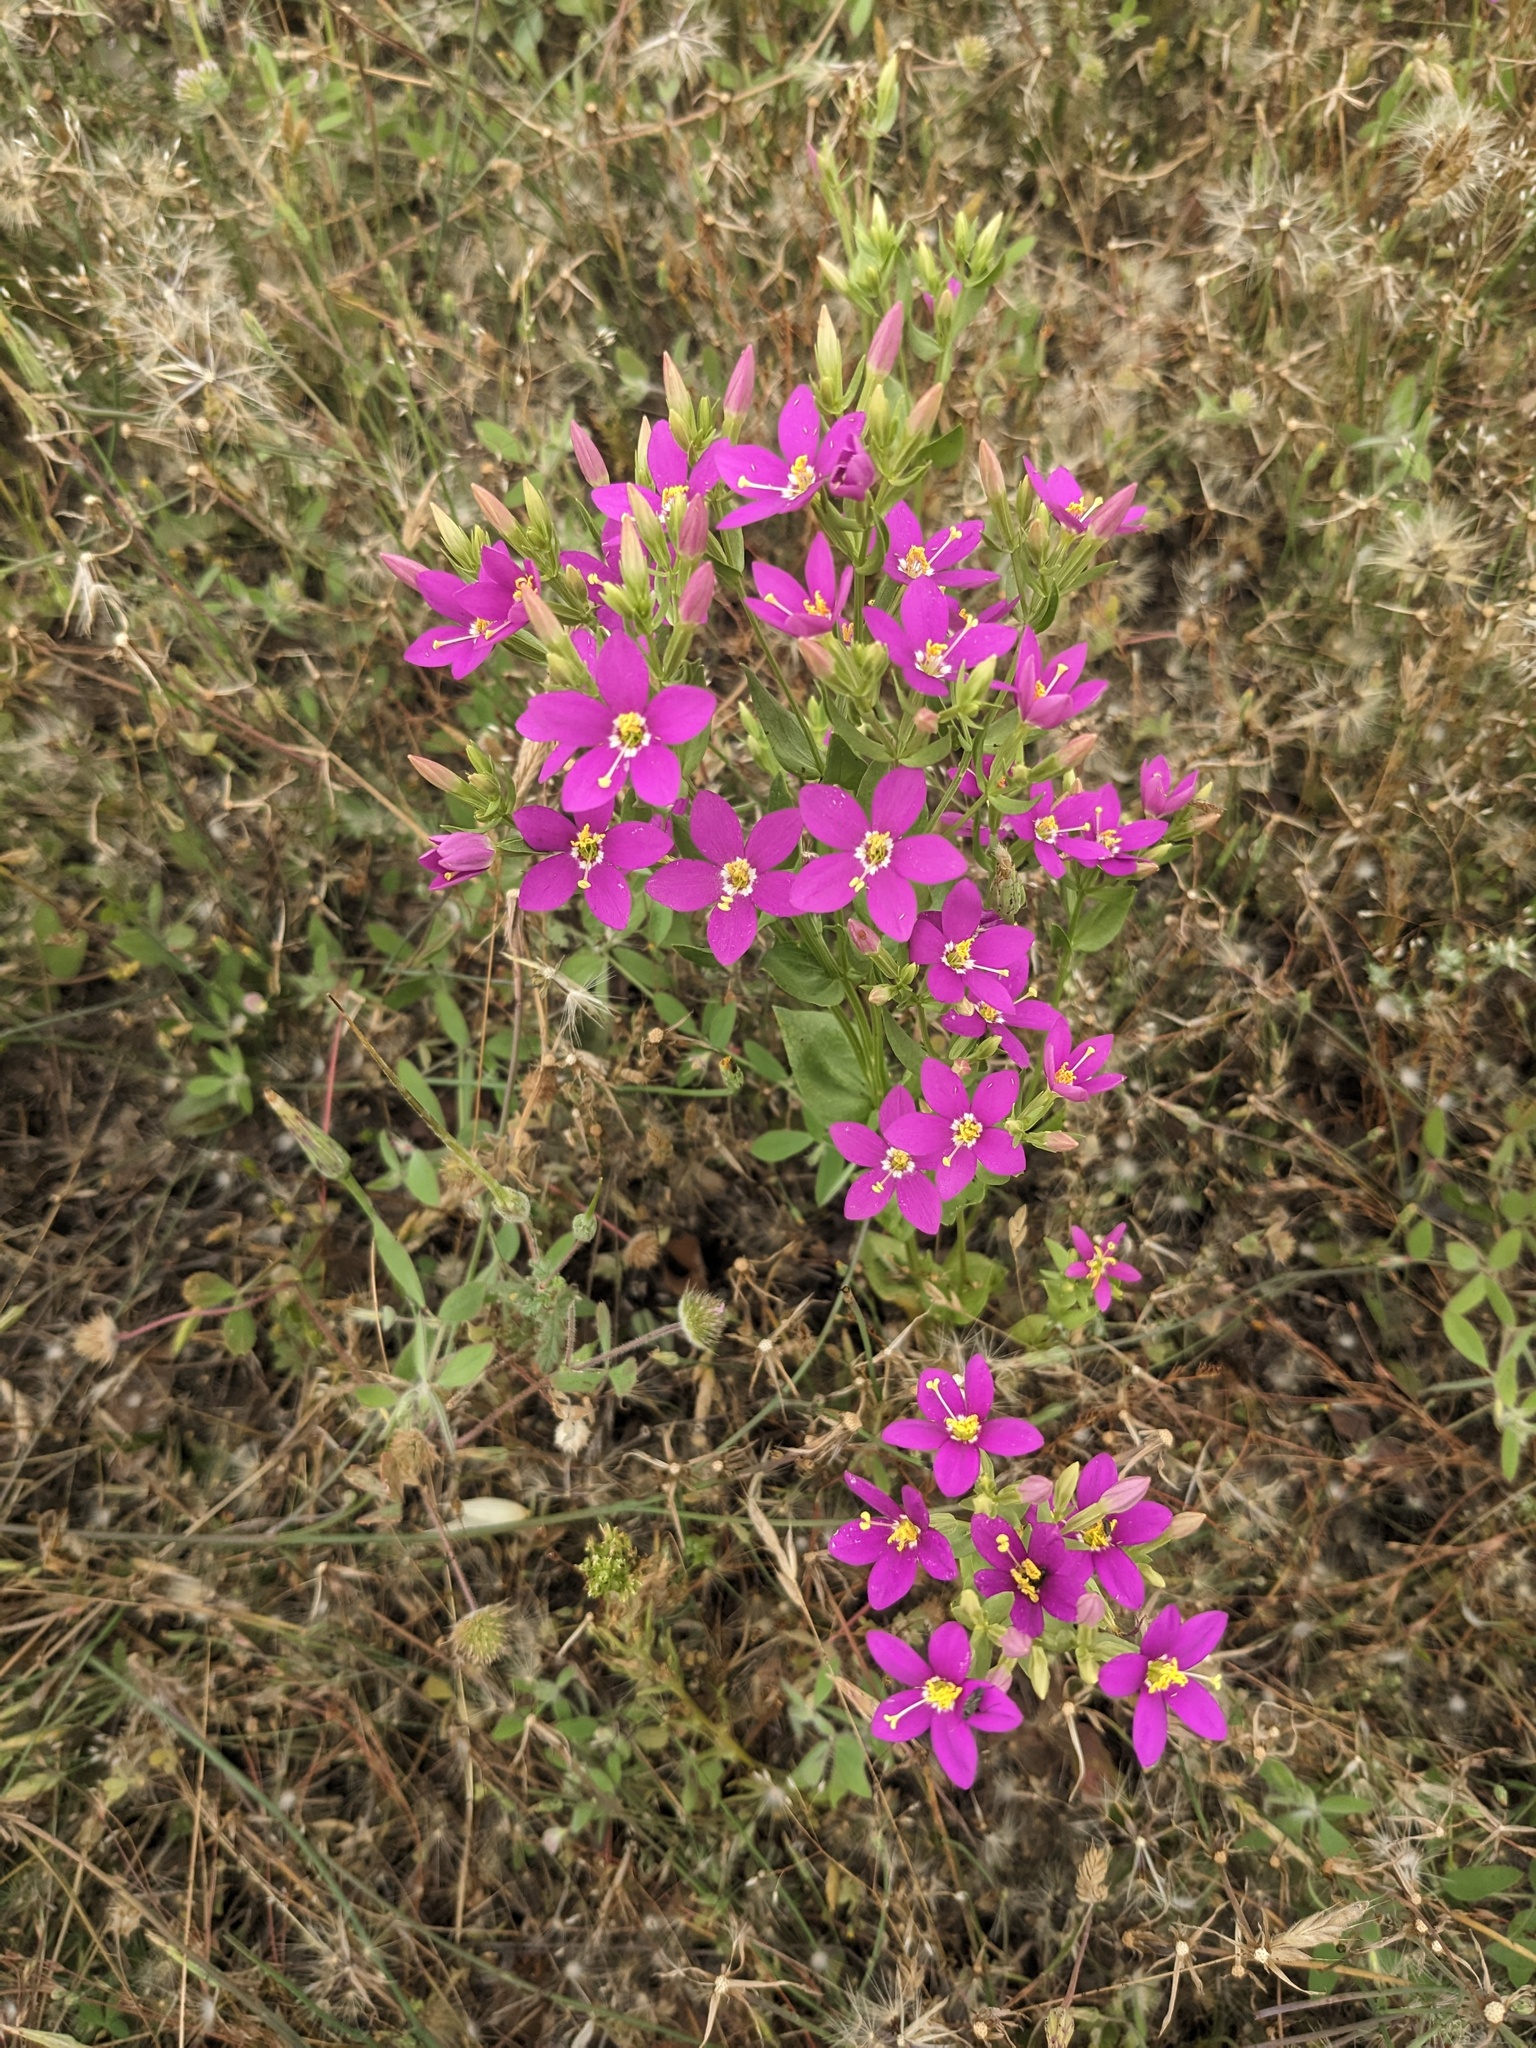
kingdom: Plantae
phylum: Tracheophyta
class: Magnoliopsida
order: Gentianales
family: Gentianaceae
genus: Zeltnera
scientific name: Zeltnera venusta
